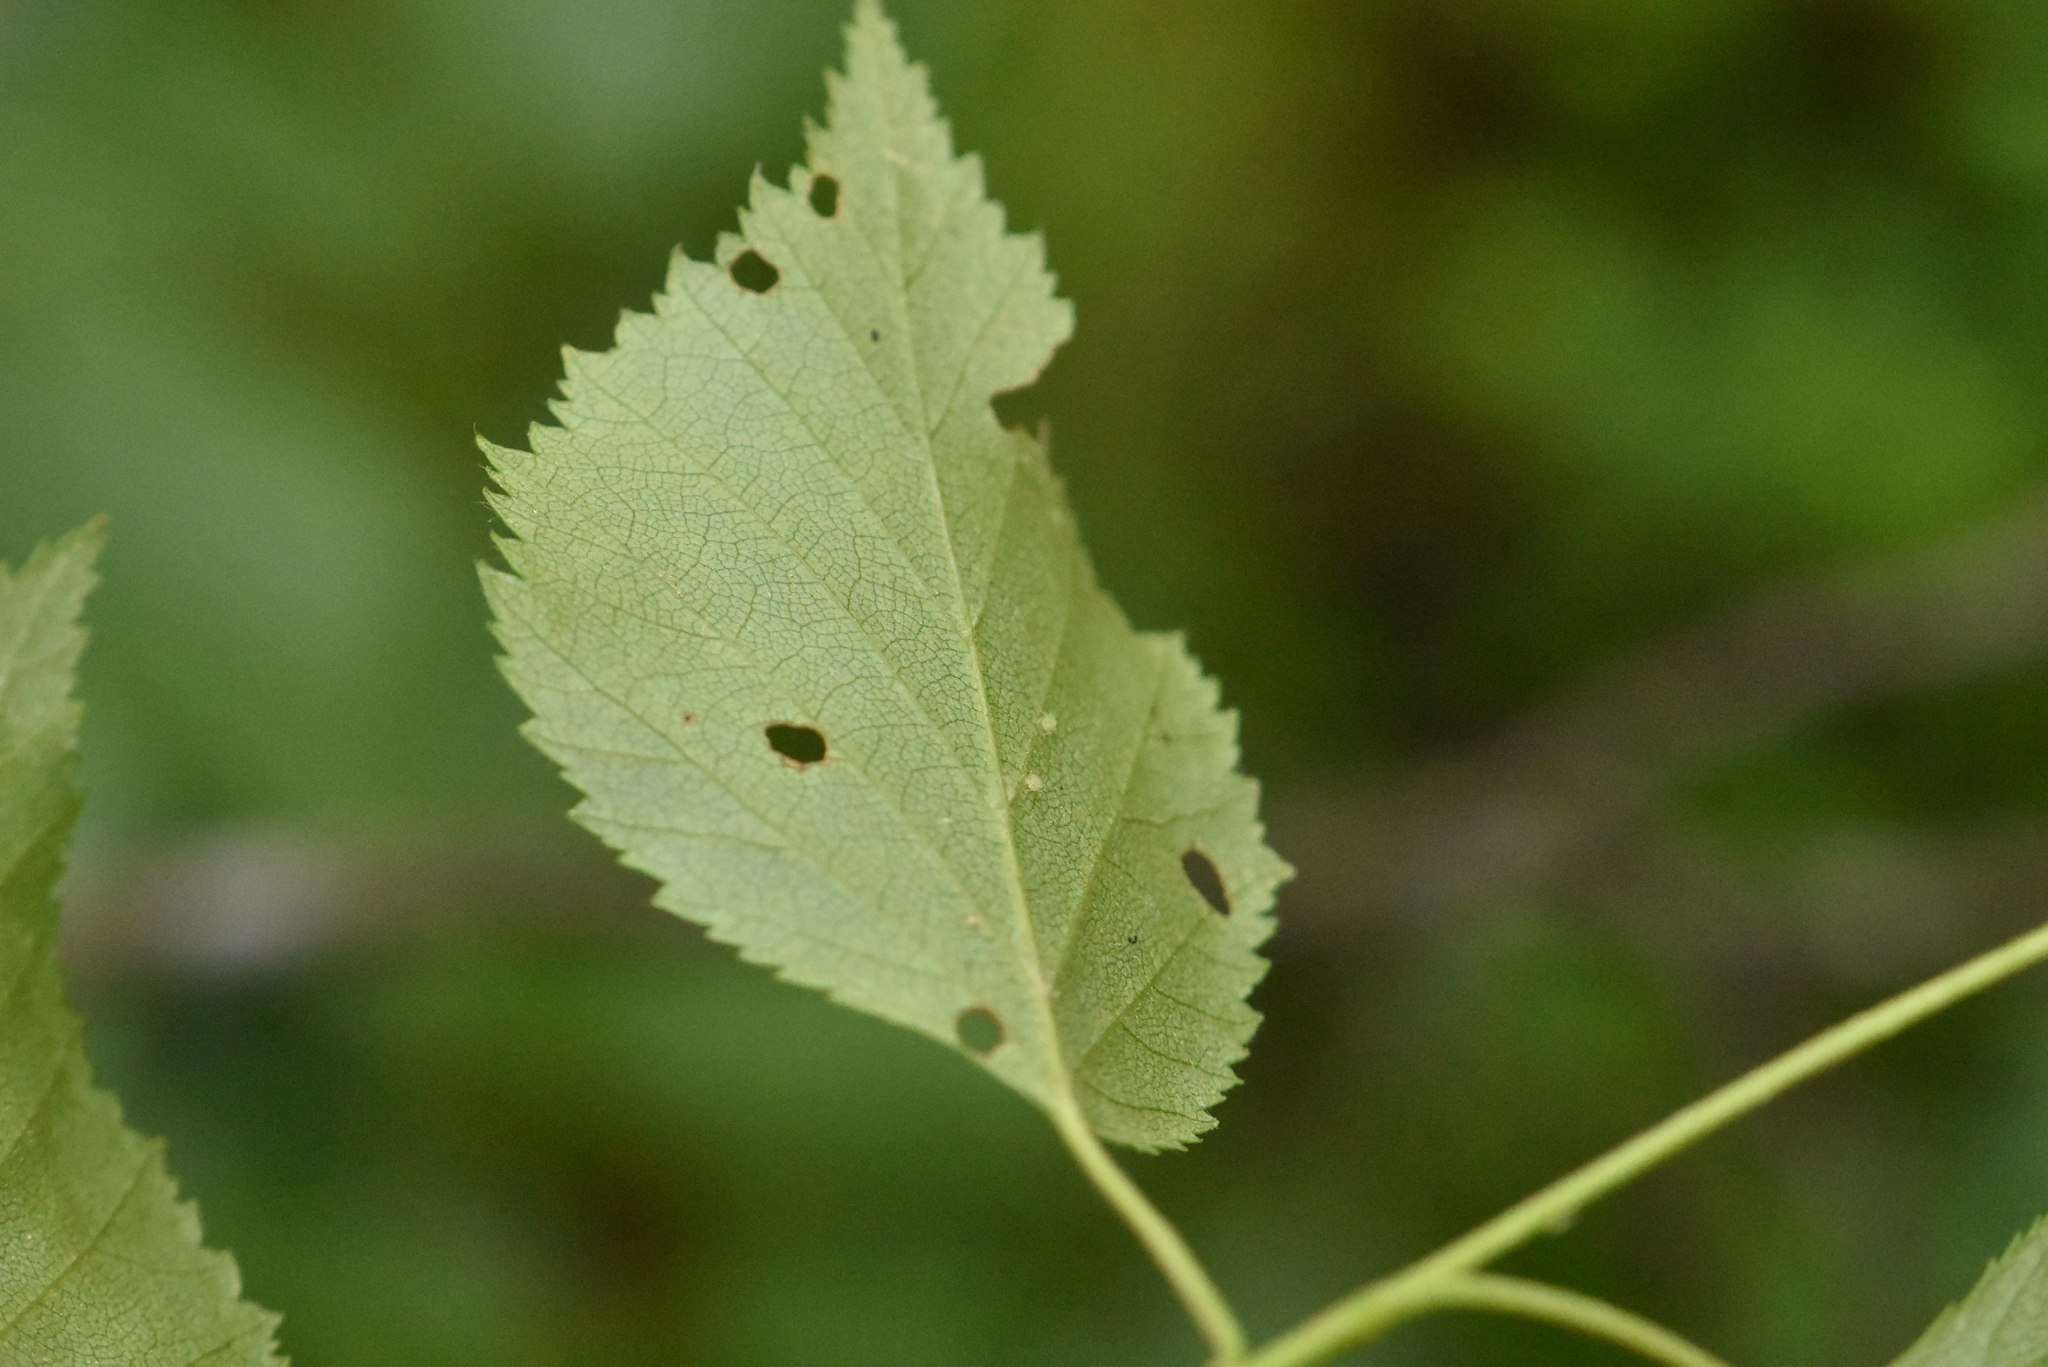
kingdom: Plantae
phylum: Tracheophyta
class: Magnoliopsida
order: Fagales
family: Betulaceae
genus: Betula
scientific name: Betula pubescens
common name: Downy birch
